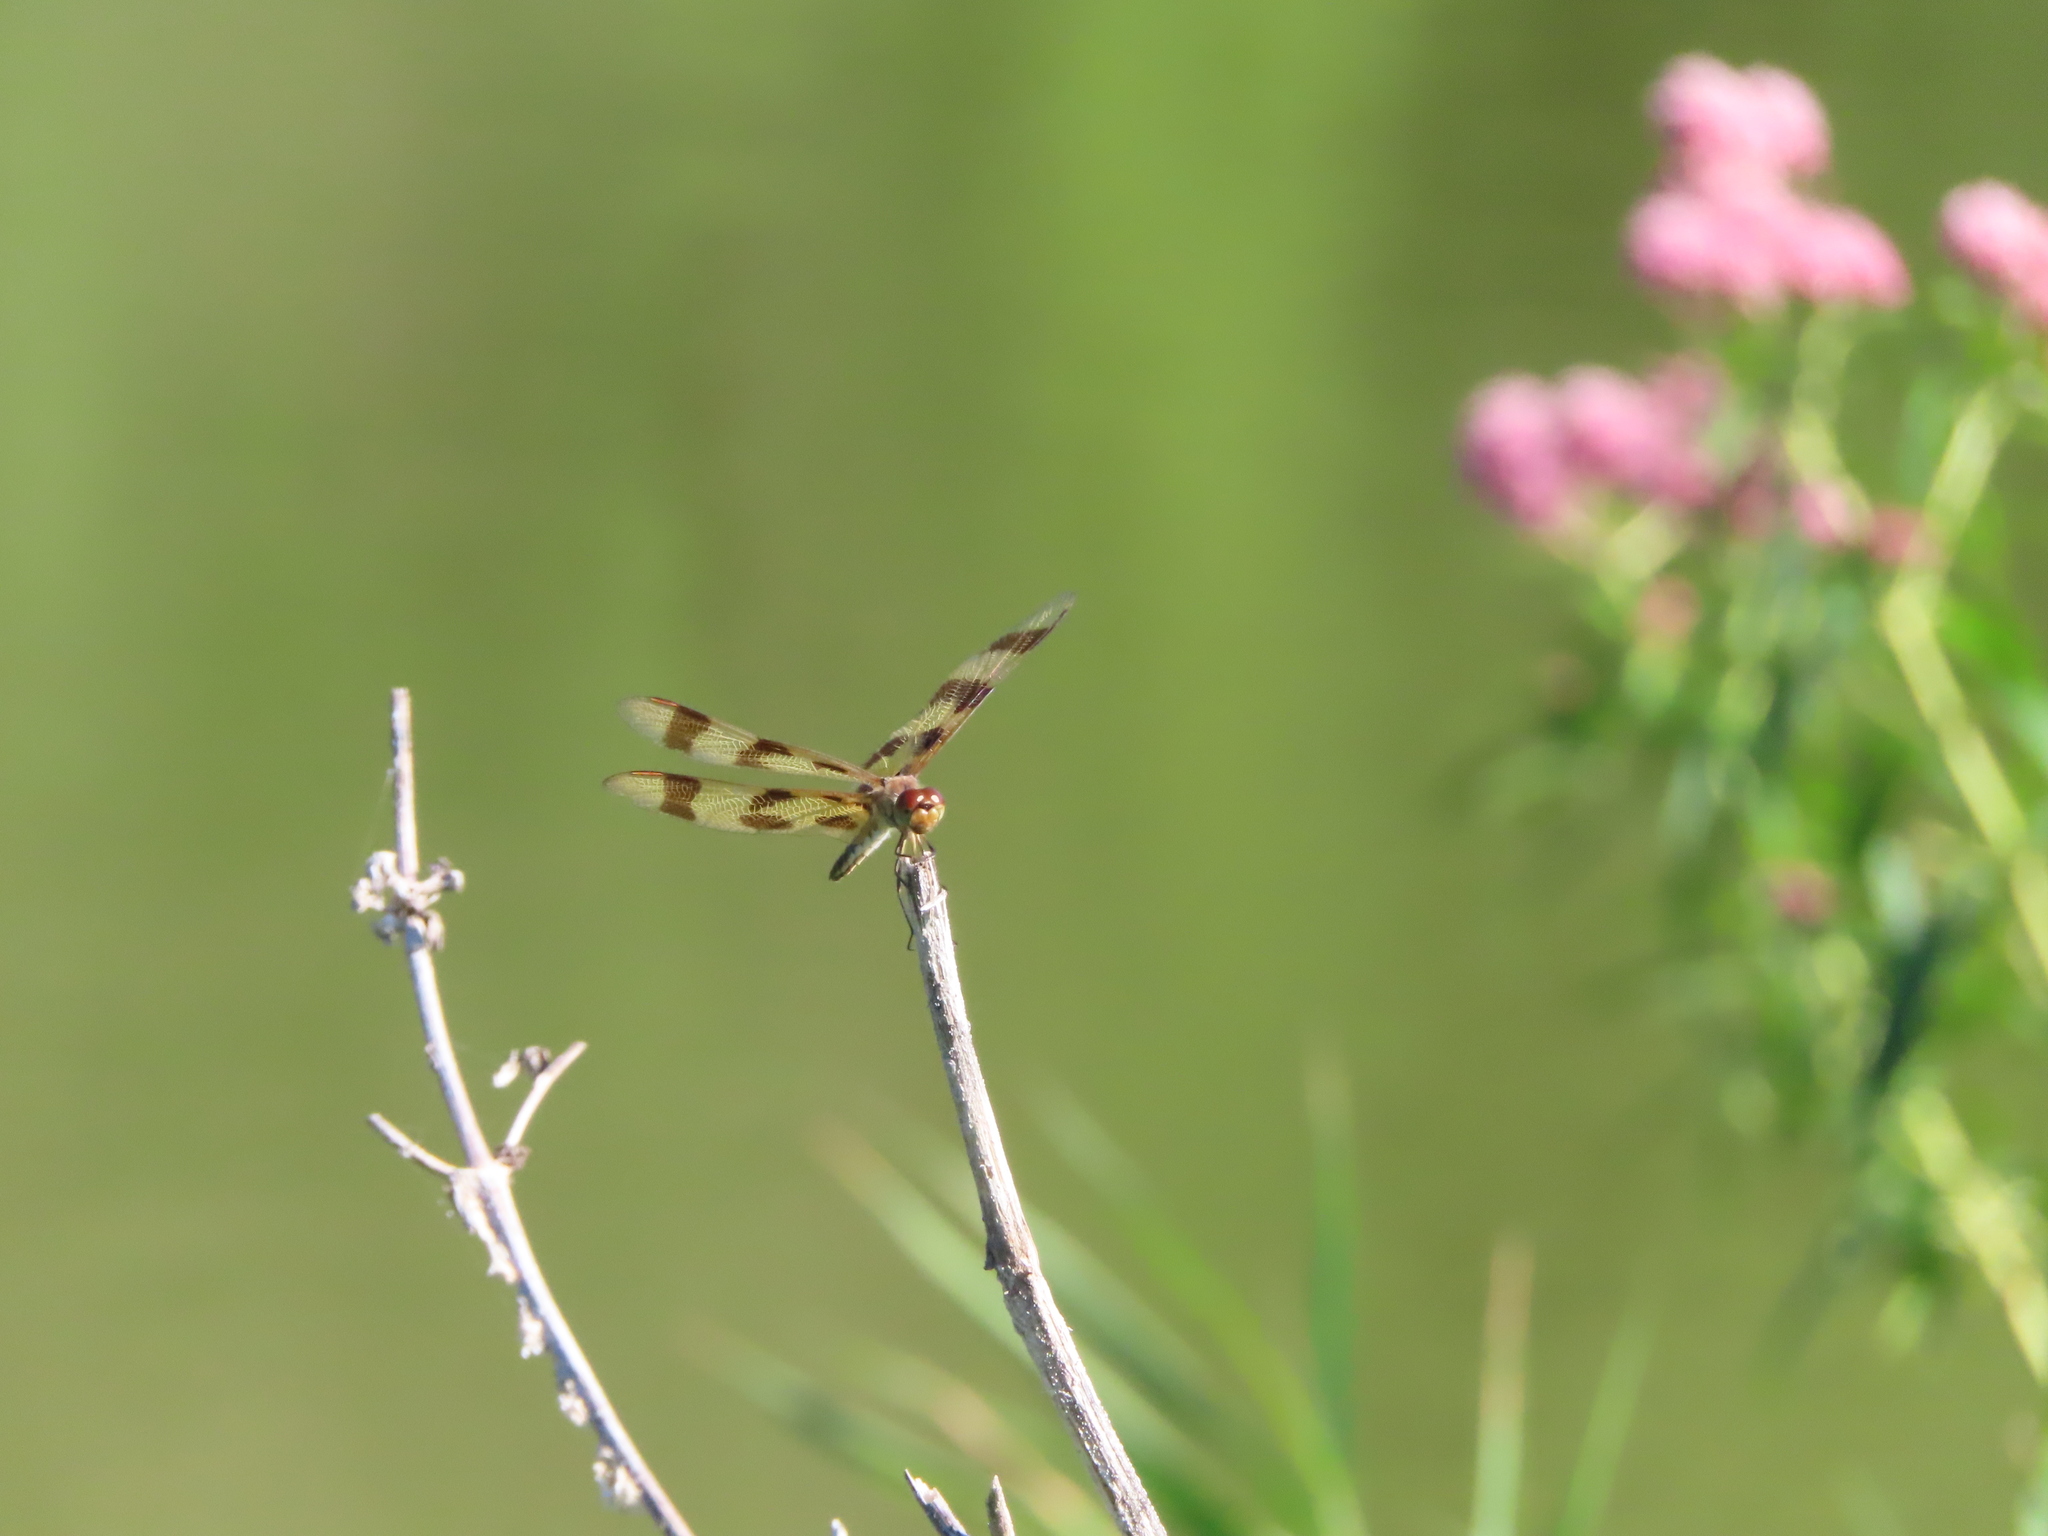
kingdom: Animalia
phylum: Arthropoda
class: Insecta
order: Odonata
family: Libellulidae
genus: Celithemis
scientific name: Celithemis eponina
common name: Halloween pennant
